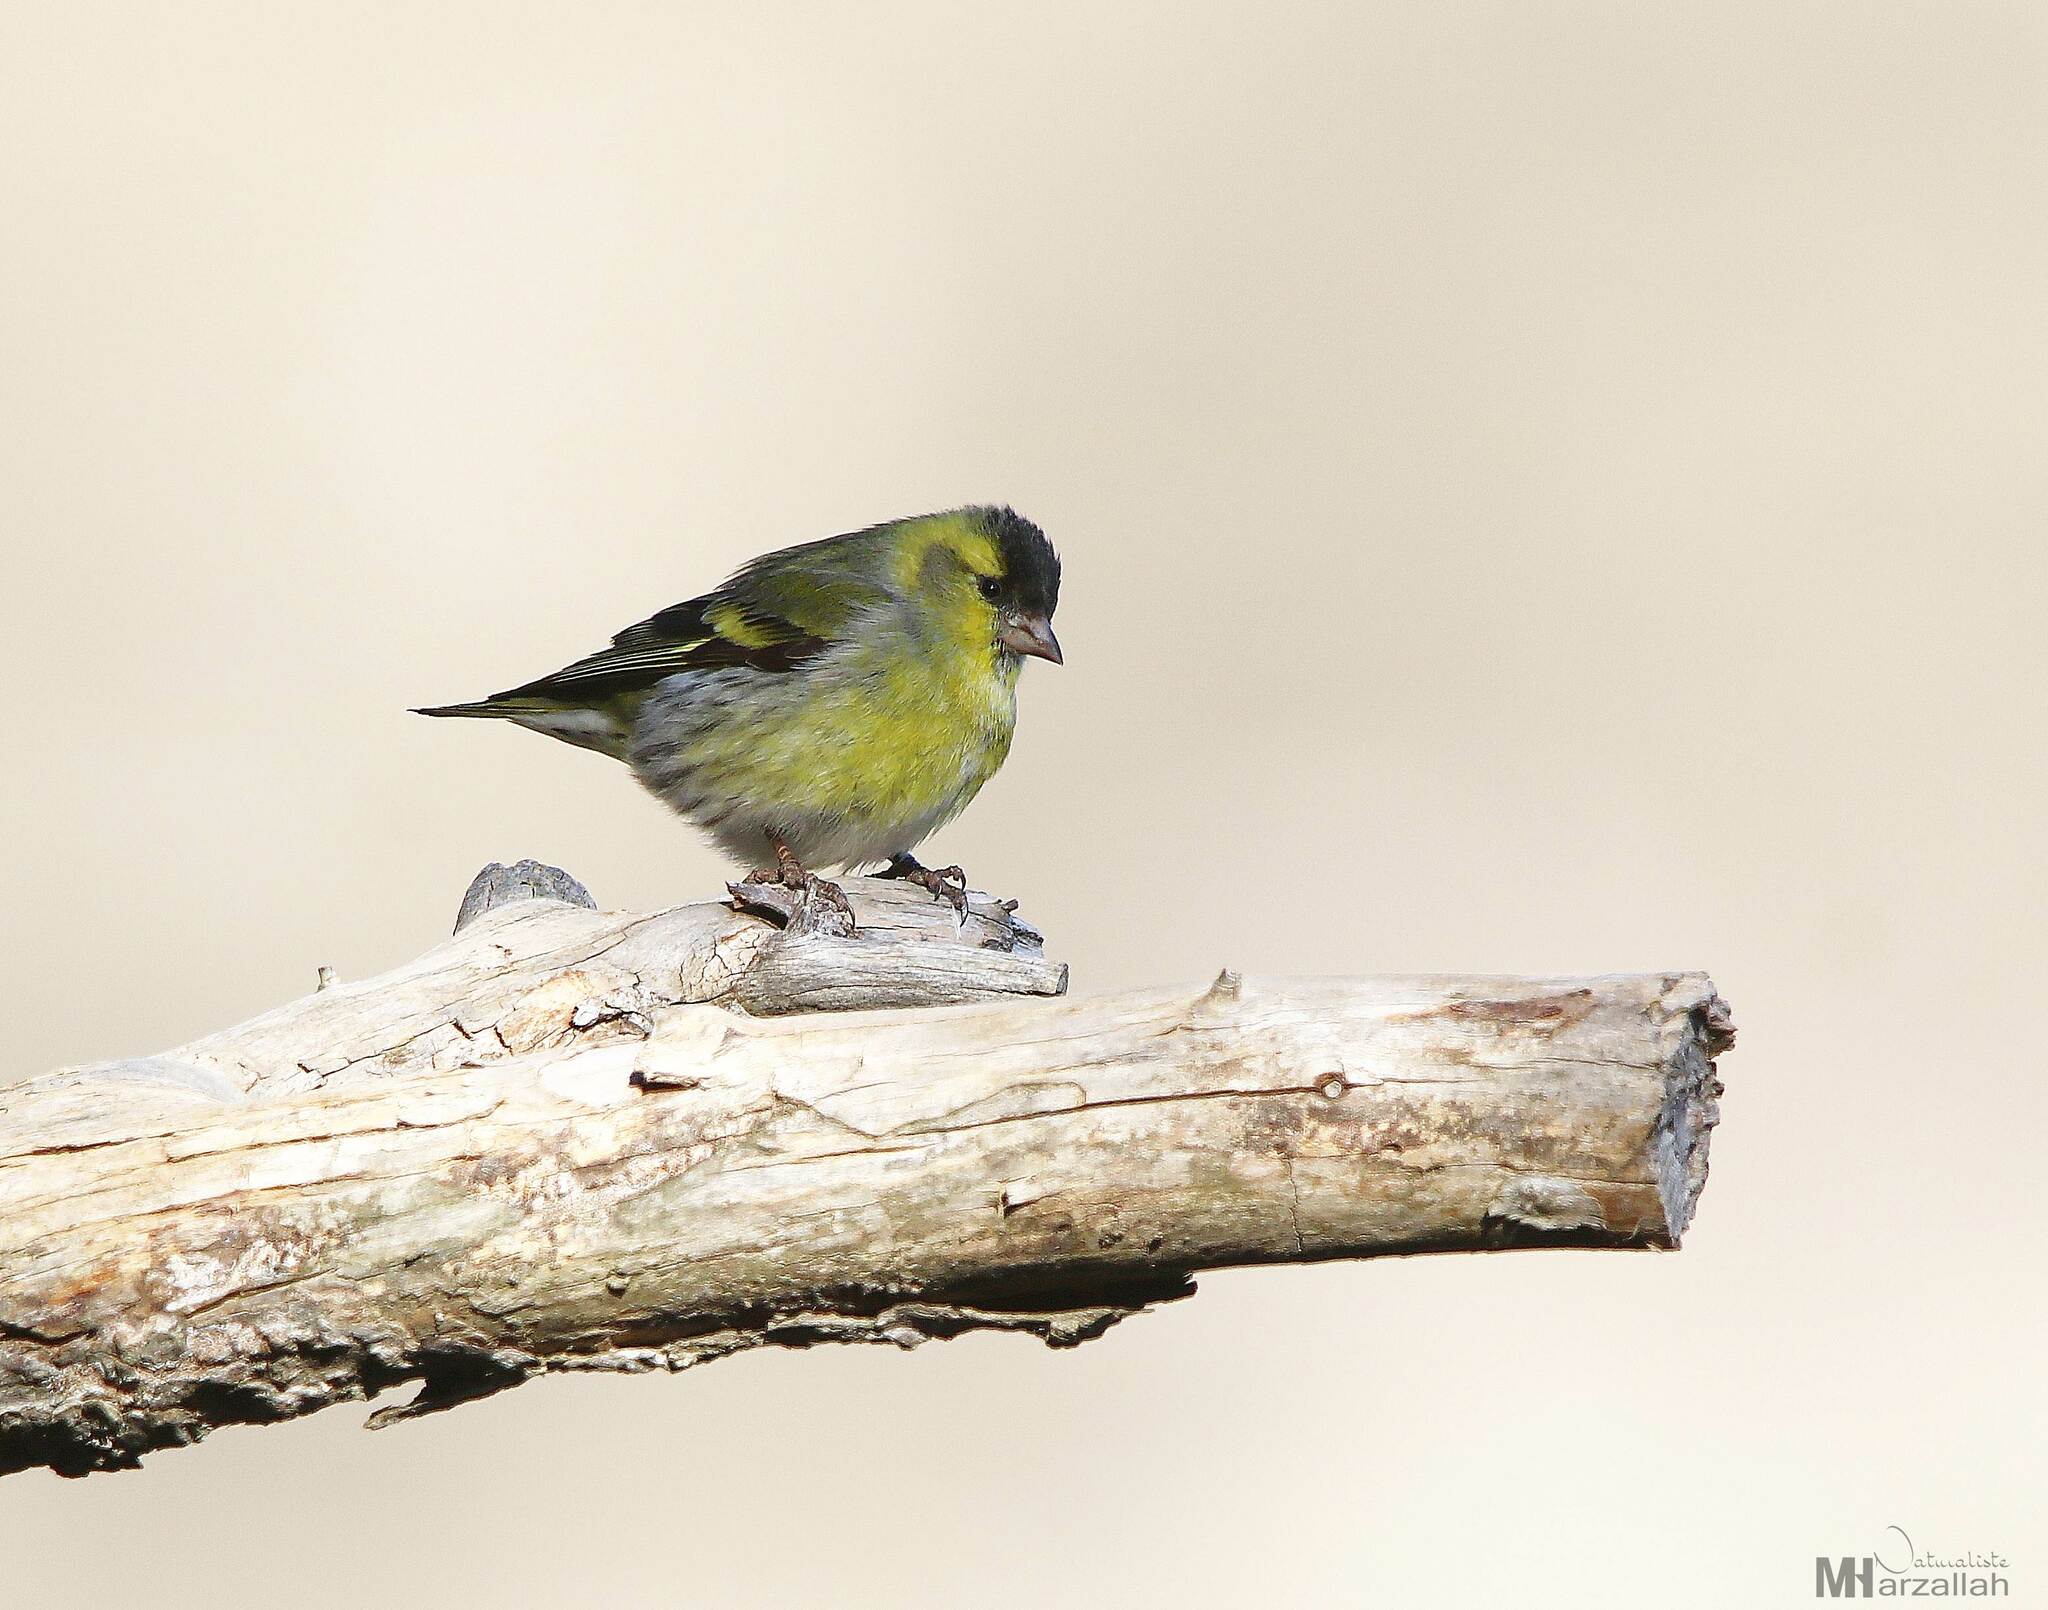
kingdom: Animalia
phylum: Chordata
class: Aves
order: Passeriformes
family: Fringillidae
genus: Spinus
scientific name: Spinus spinus
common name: Eurasian siskin
